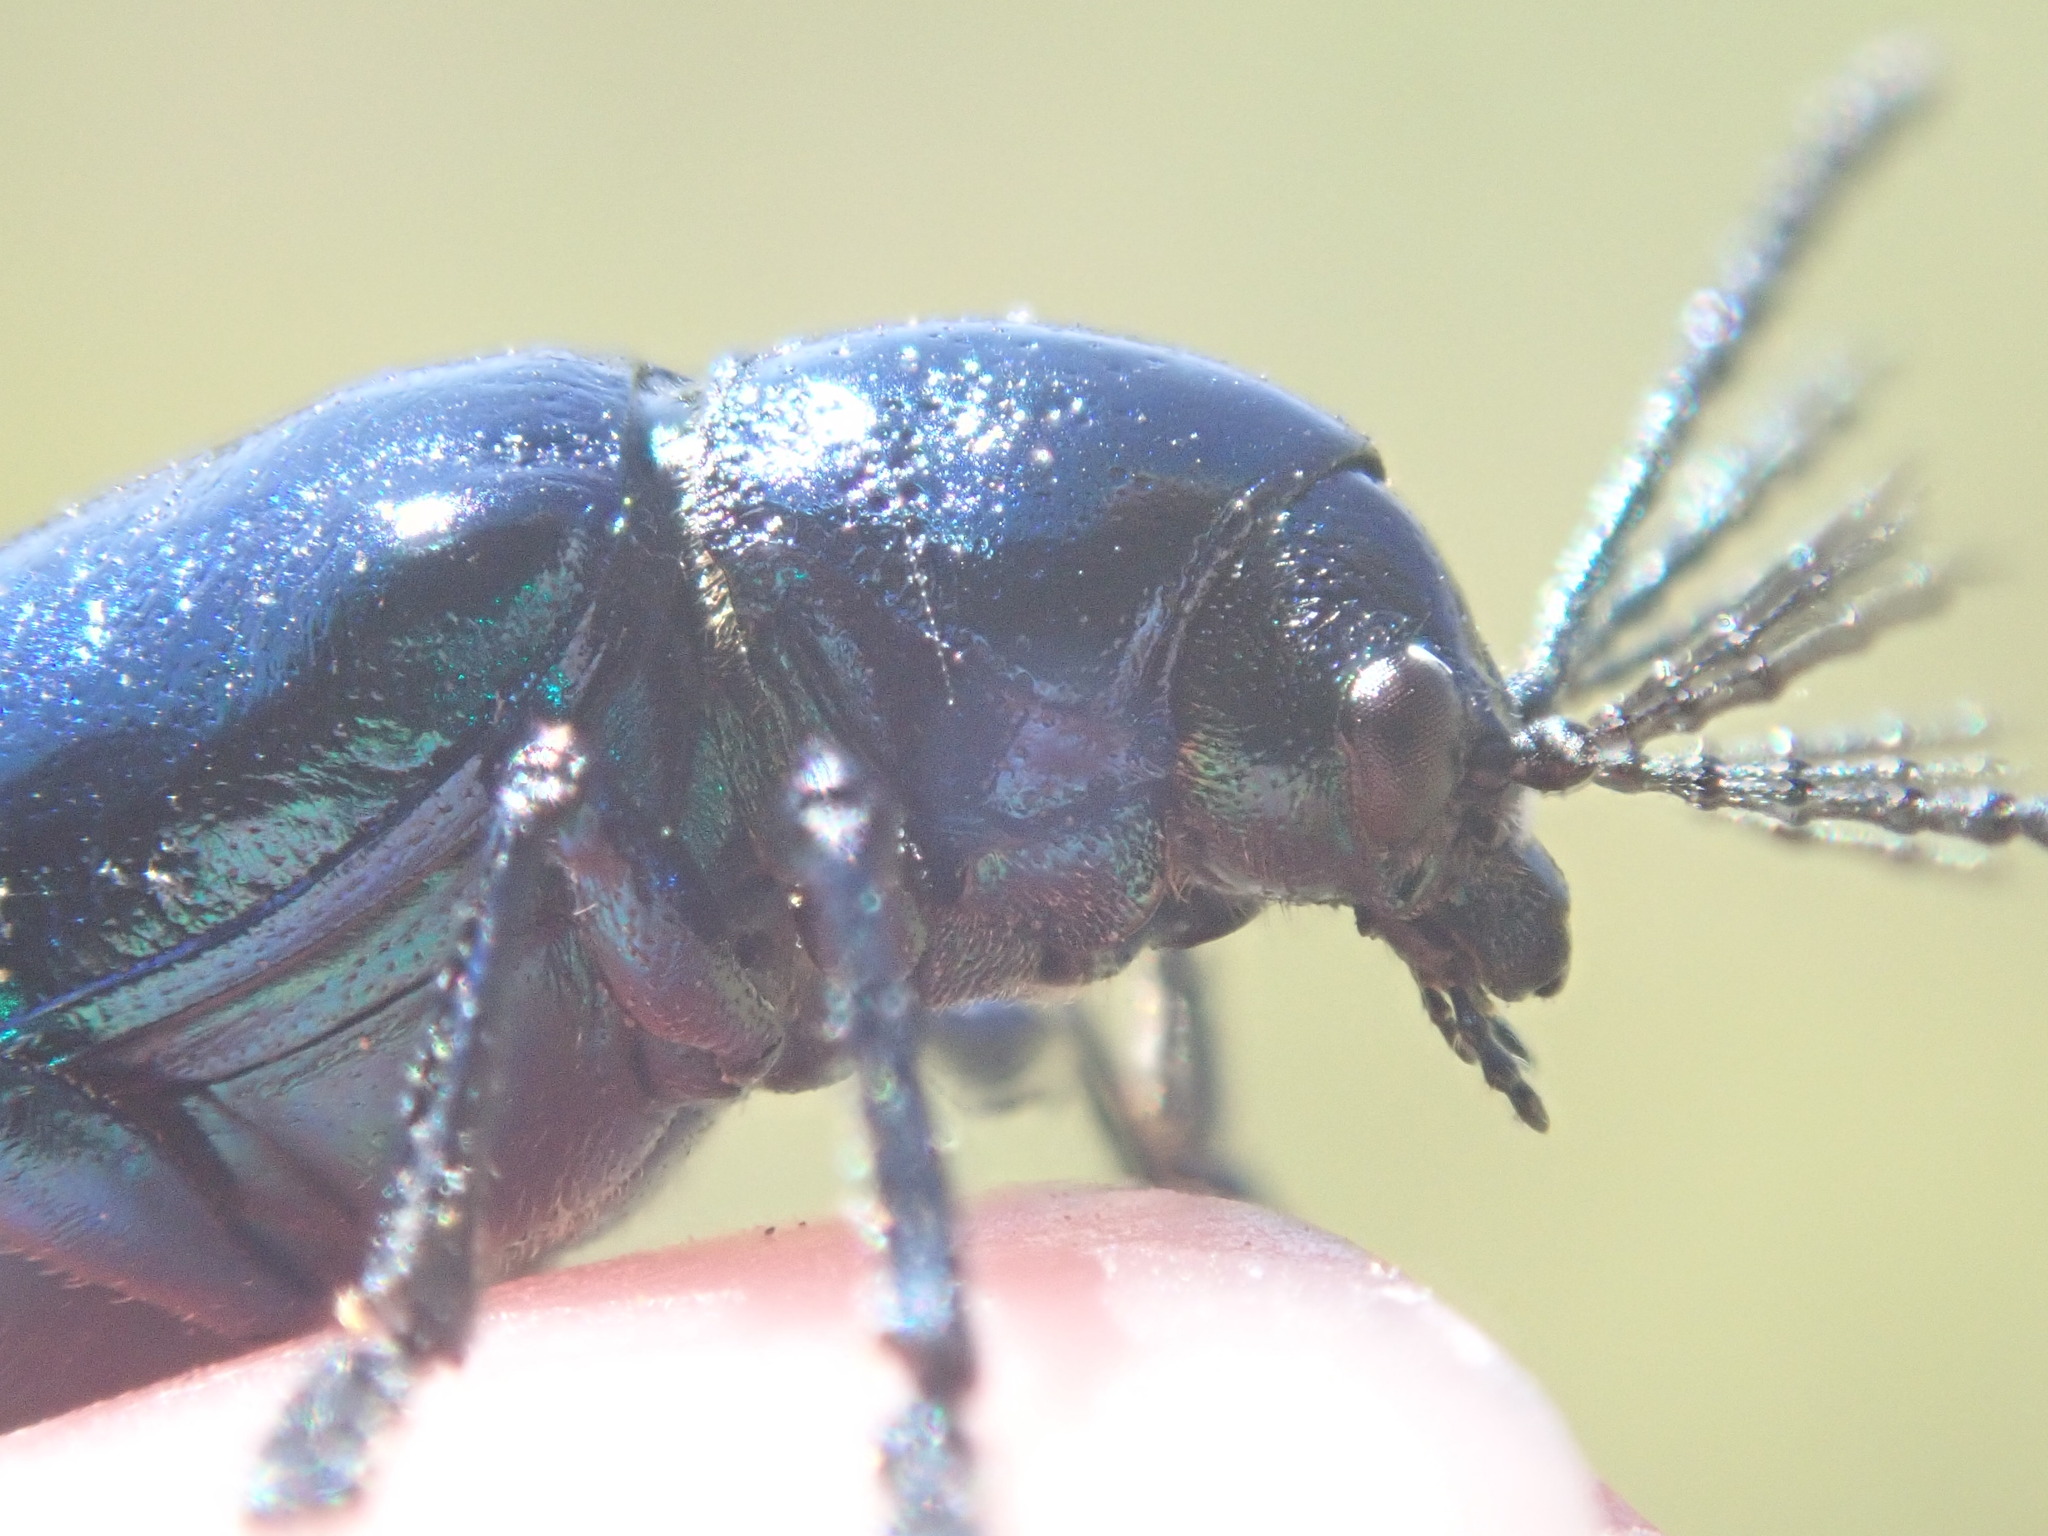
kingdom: Animalia
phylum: Arthropoda
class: Insecta
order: Coleoptera
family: Chrysomelidae
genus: Chrysochus
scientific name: Chrysochus cobaltinus
